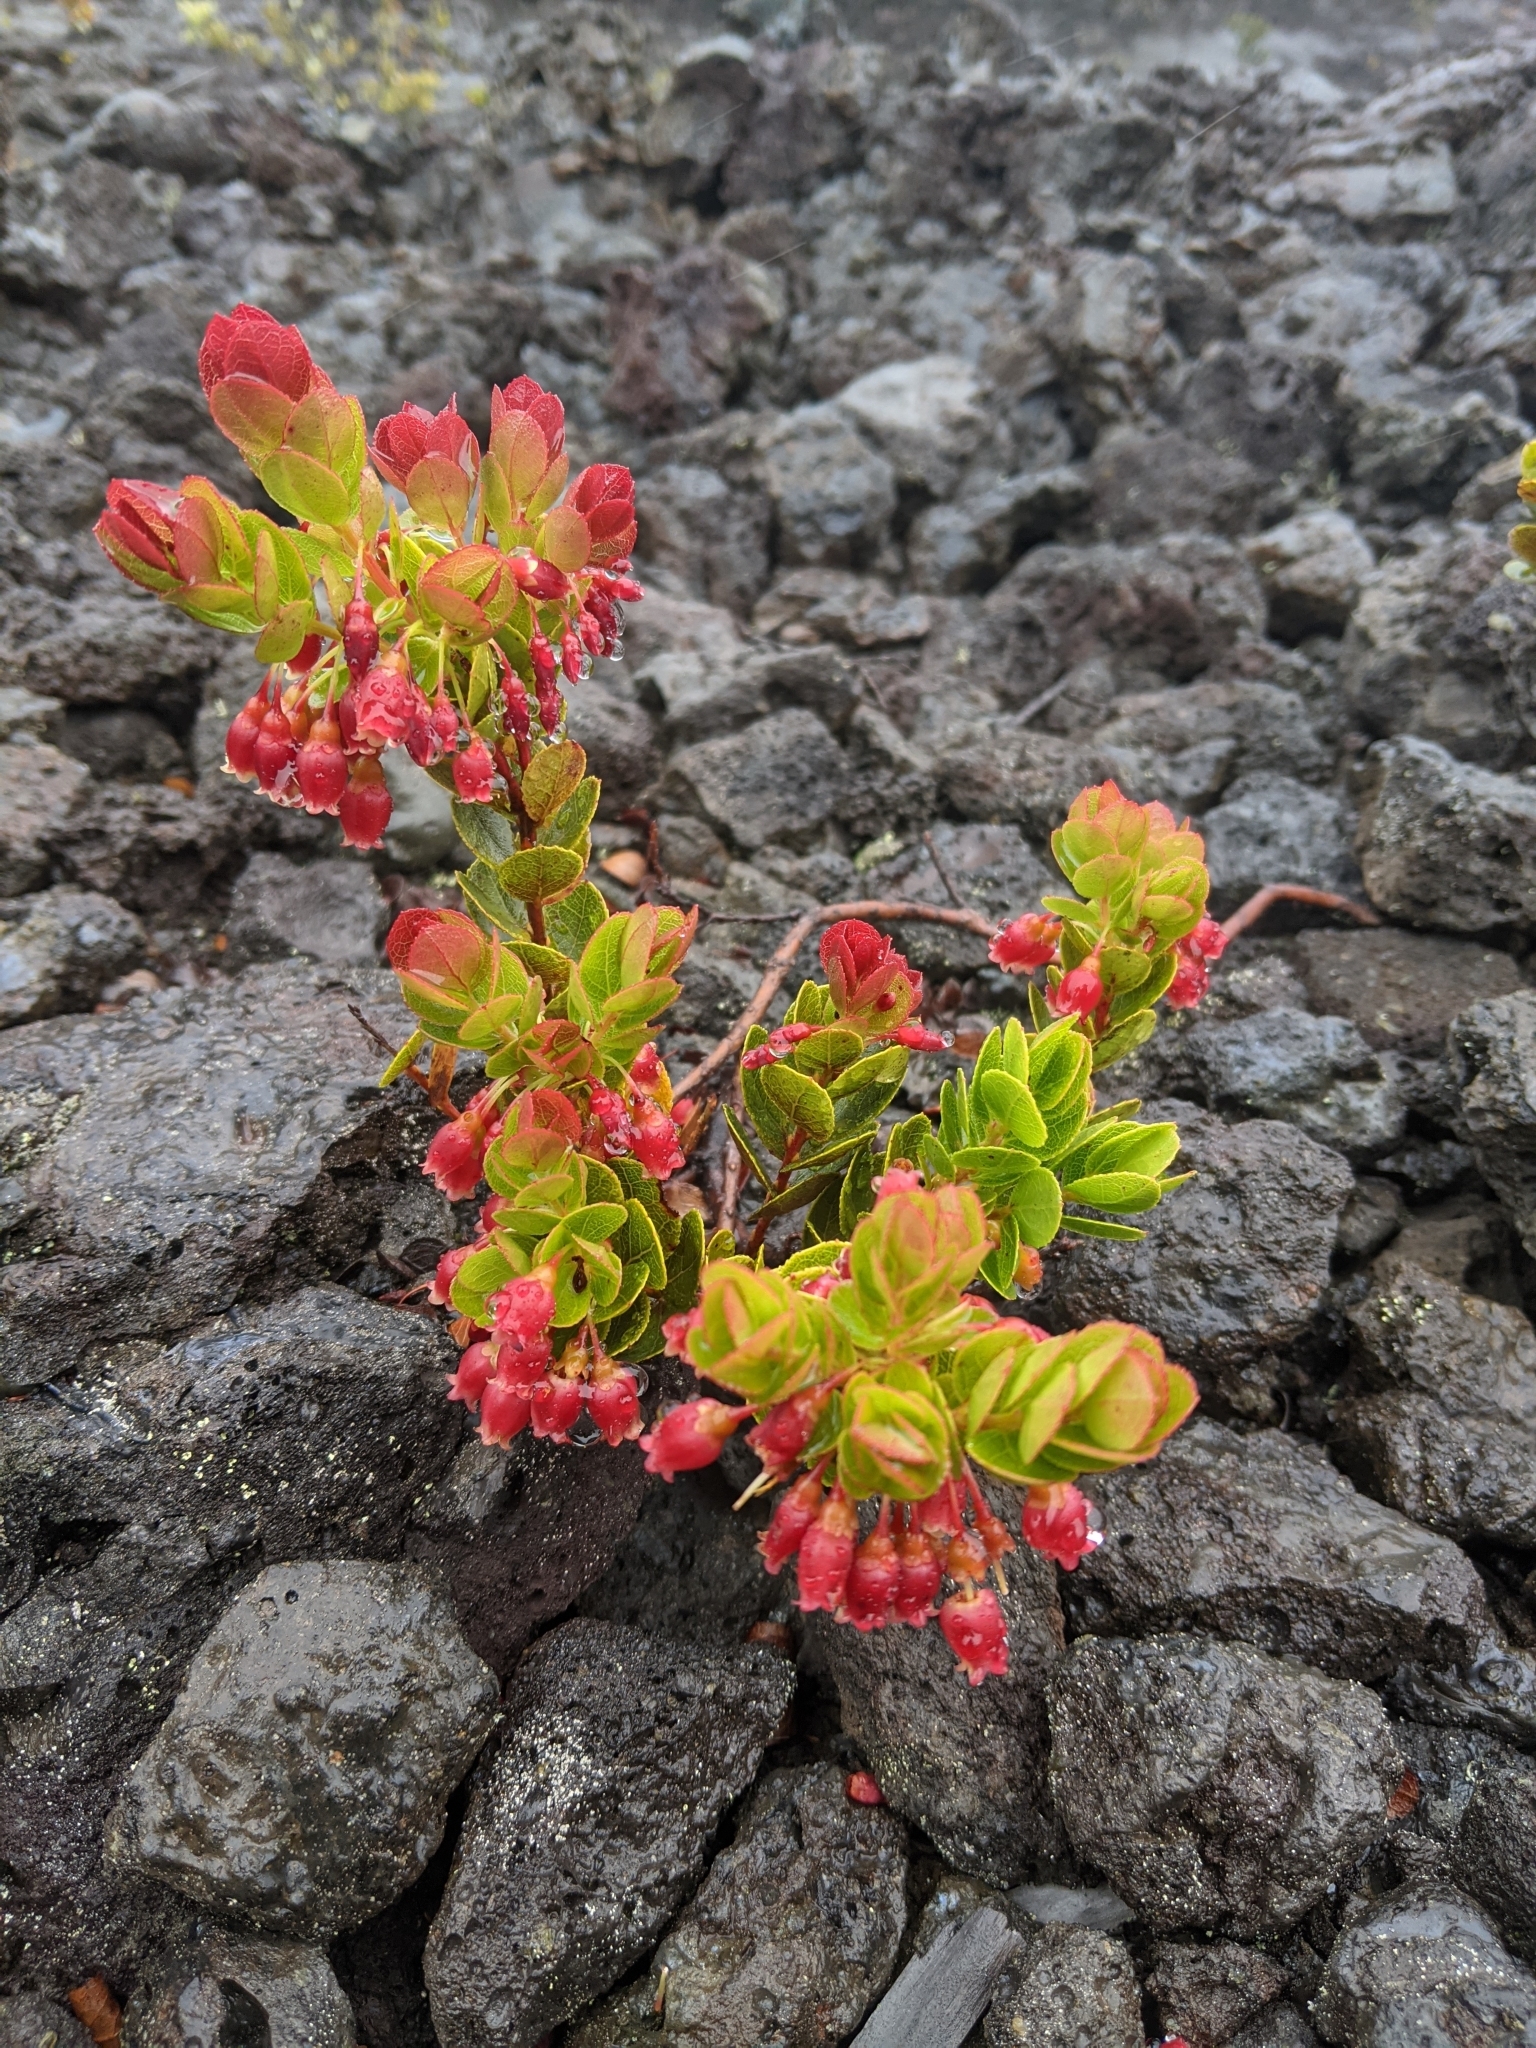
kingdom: Plantae
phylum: Tracheophyta
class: Magnoliopsida
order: Ericales
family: Ericaceae
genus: Vaccinium
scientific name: Vaccinium reticulatum
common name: Ohelo
